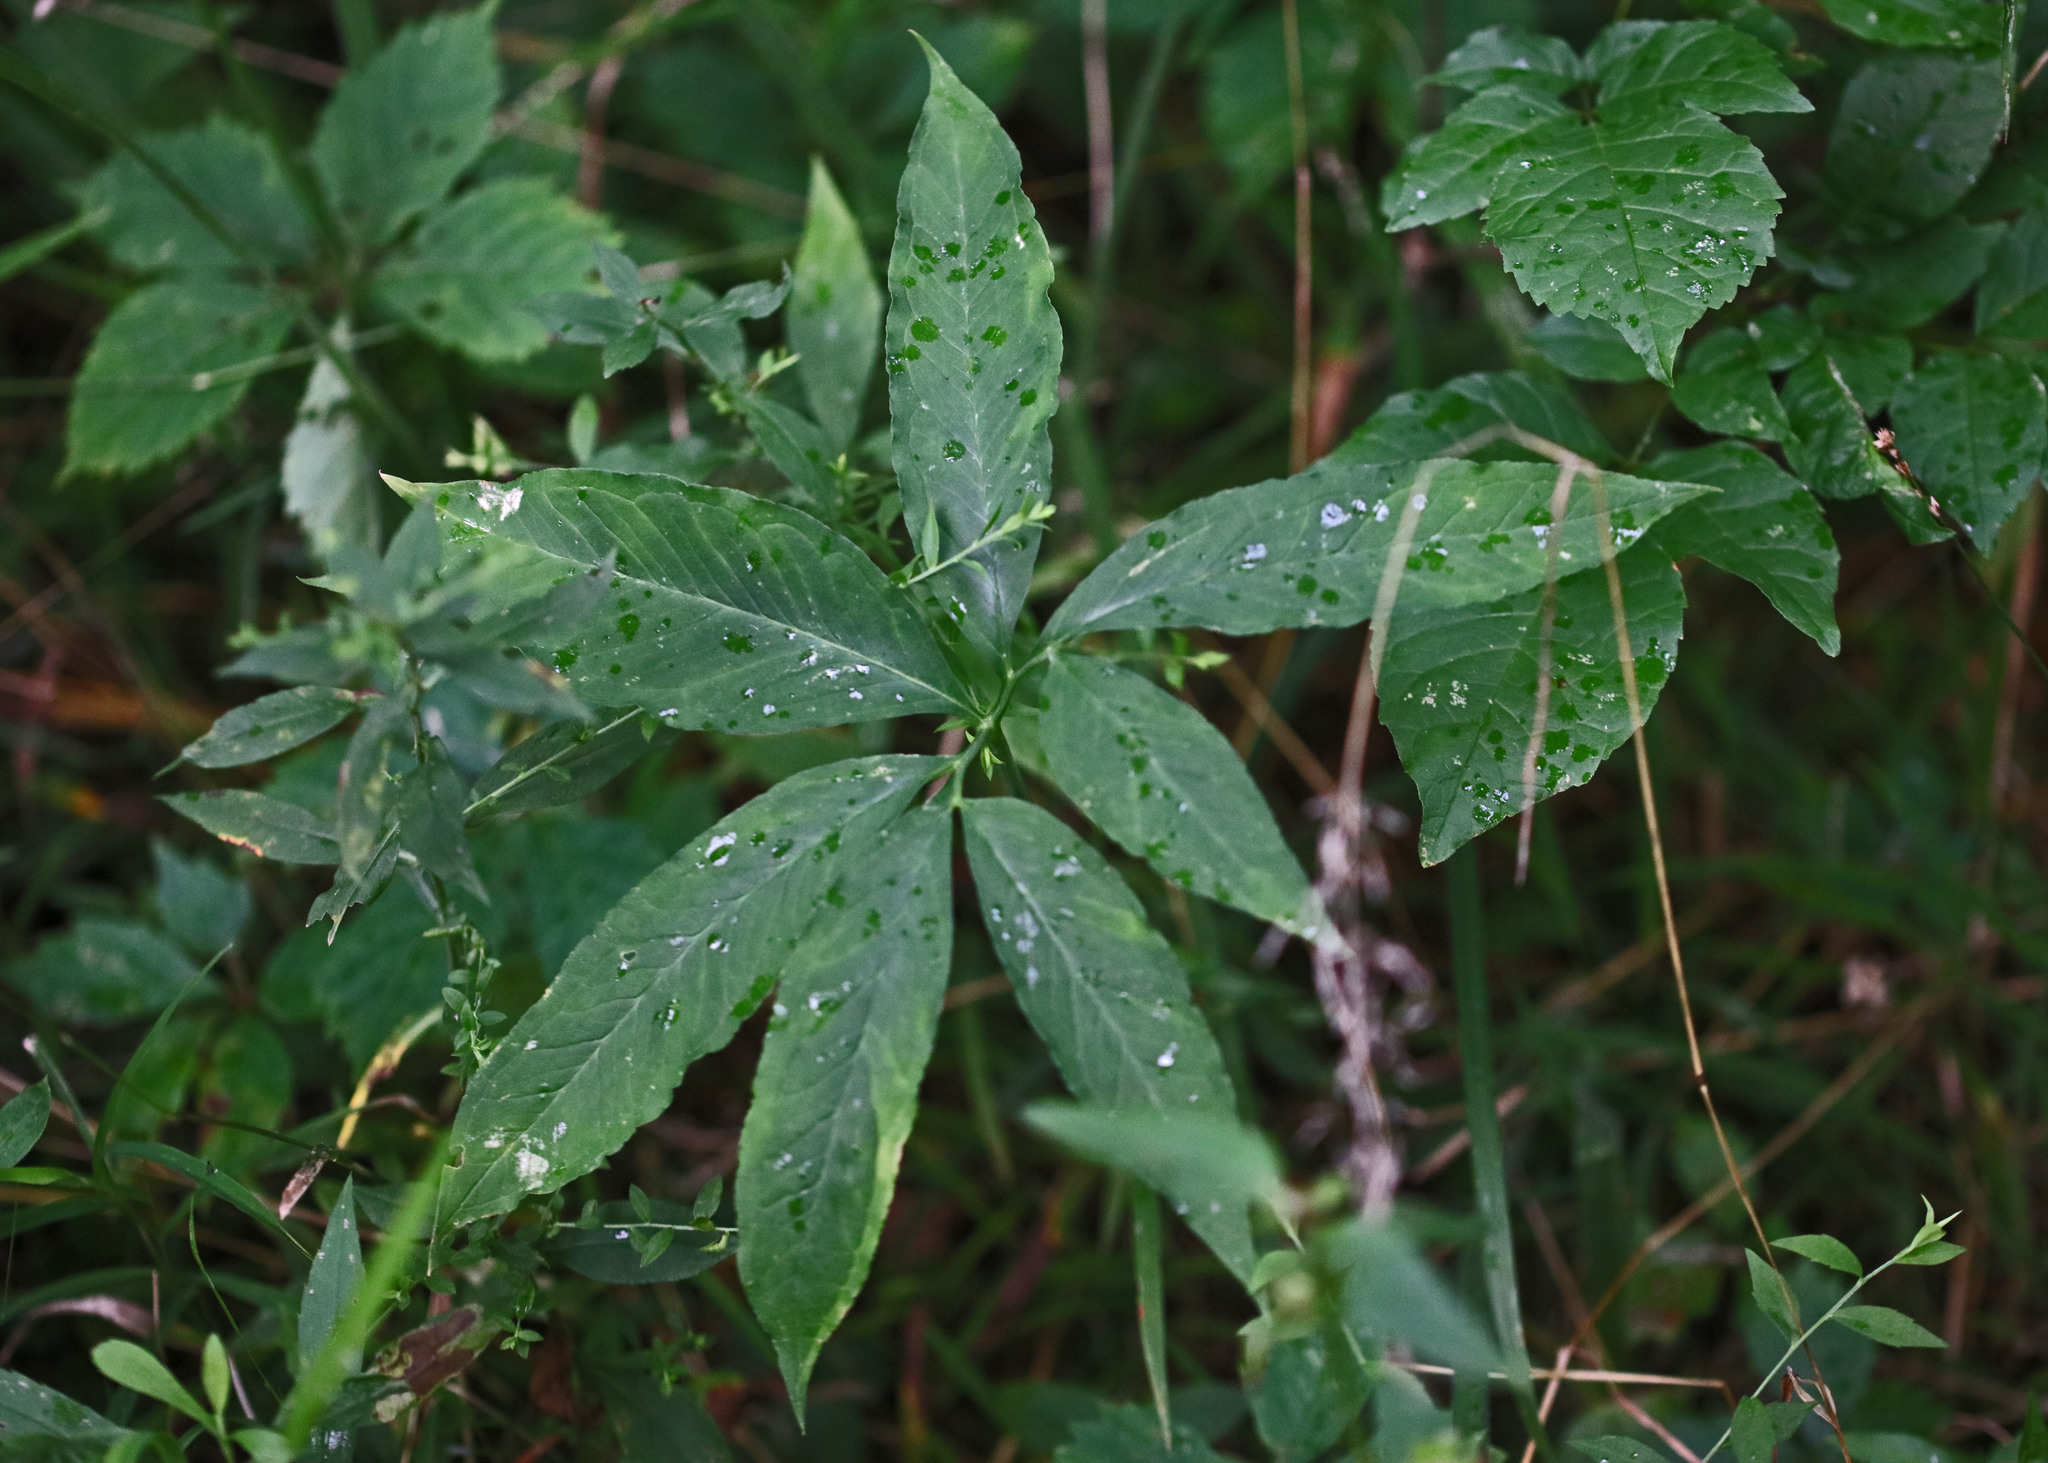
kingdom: Plantae
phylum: Tracheophyta
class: Liliopsida
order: Alismatales
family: Araceae
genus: Arisaema
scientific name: Arisaema dracontium
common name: Dragon-arum
